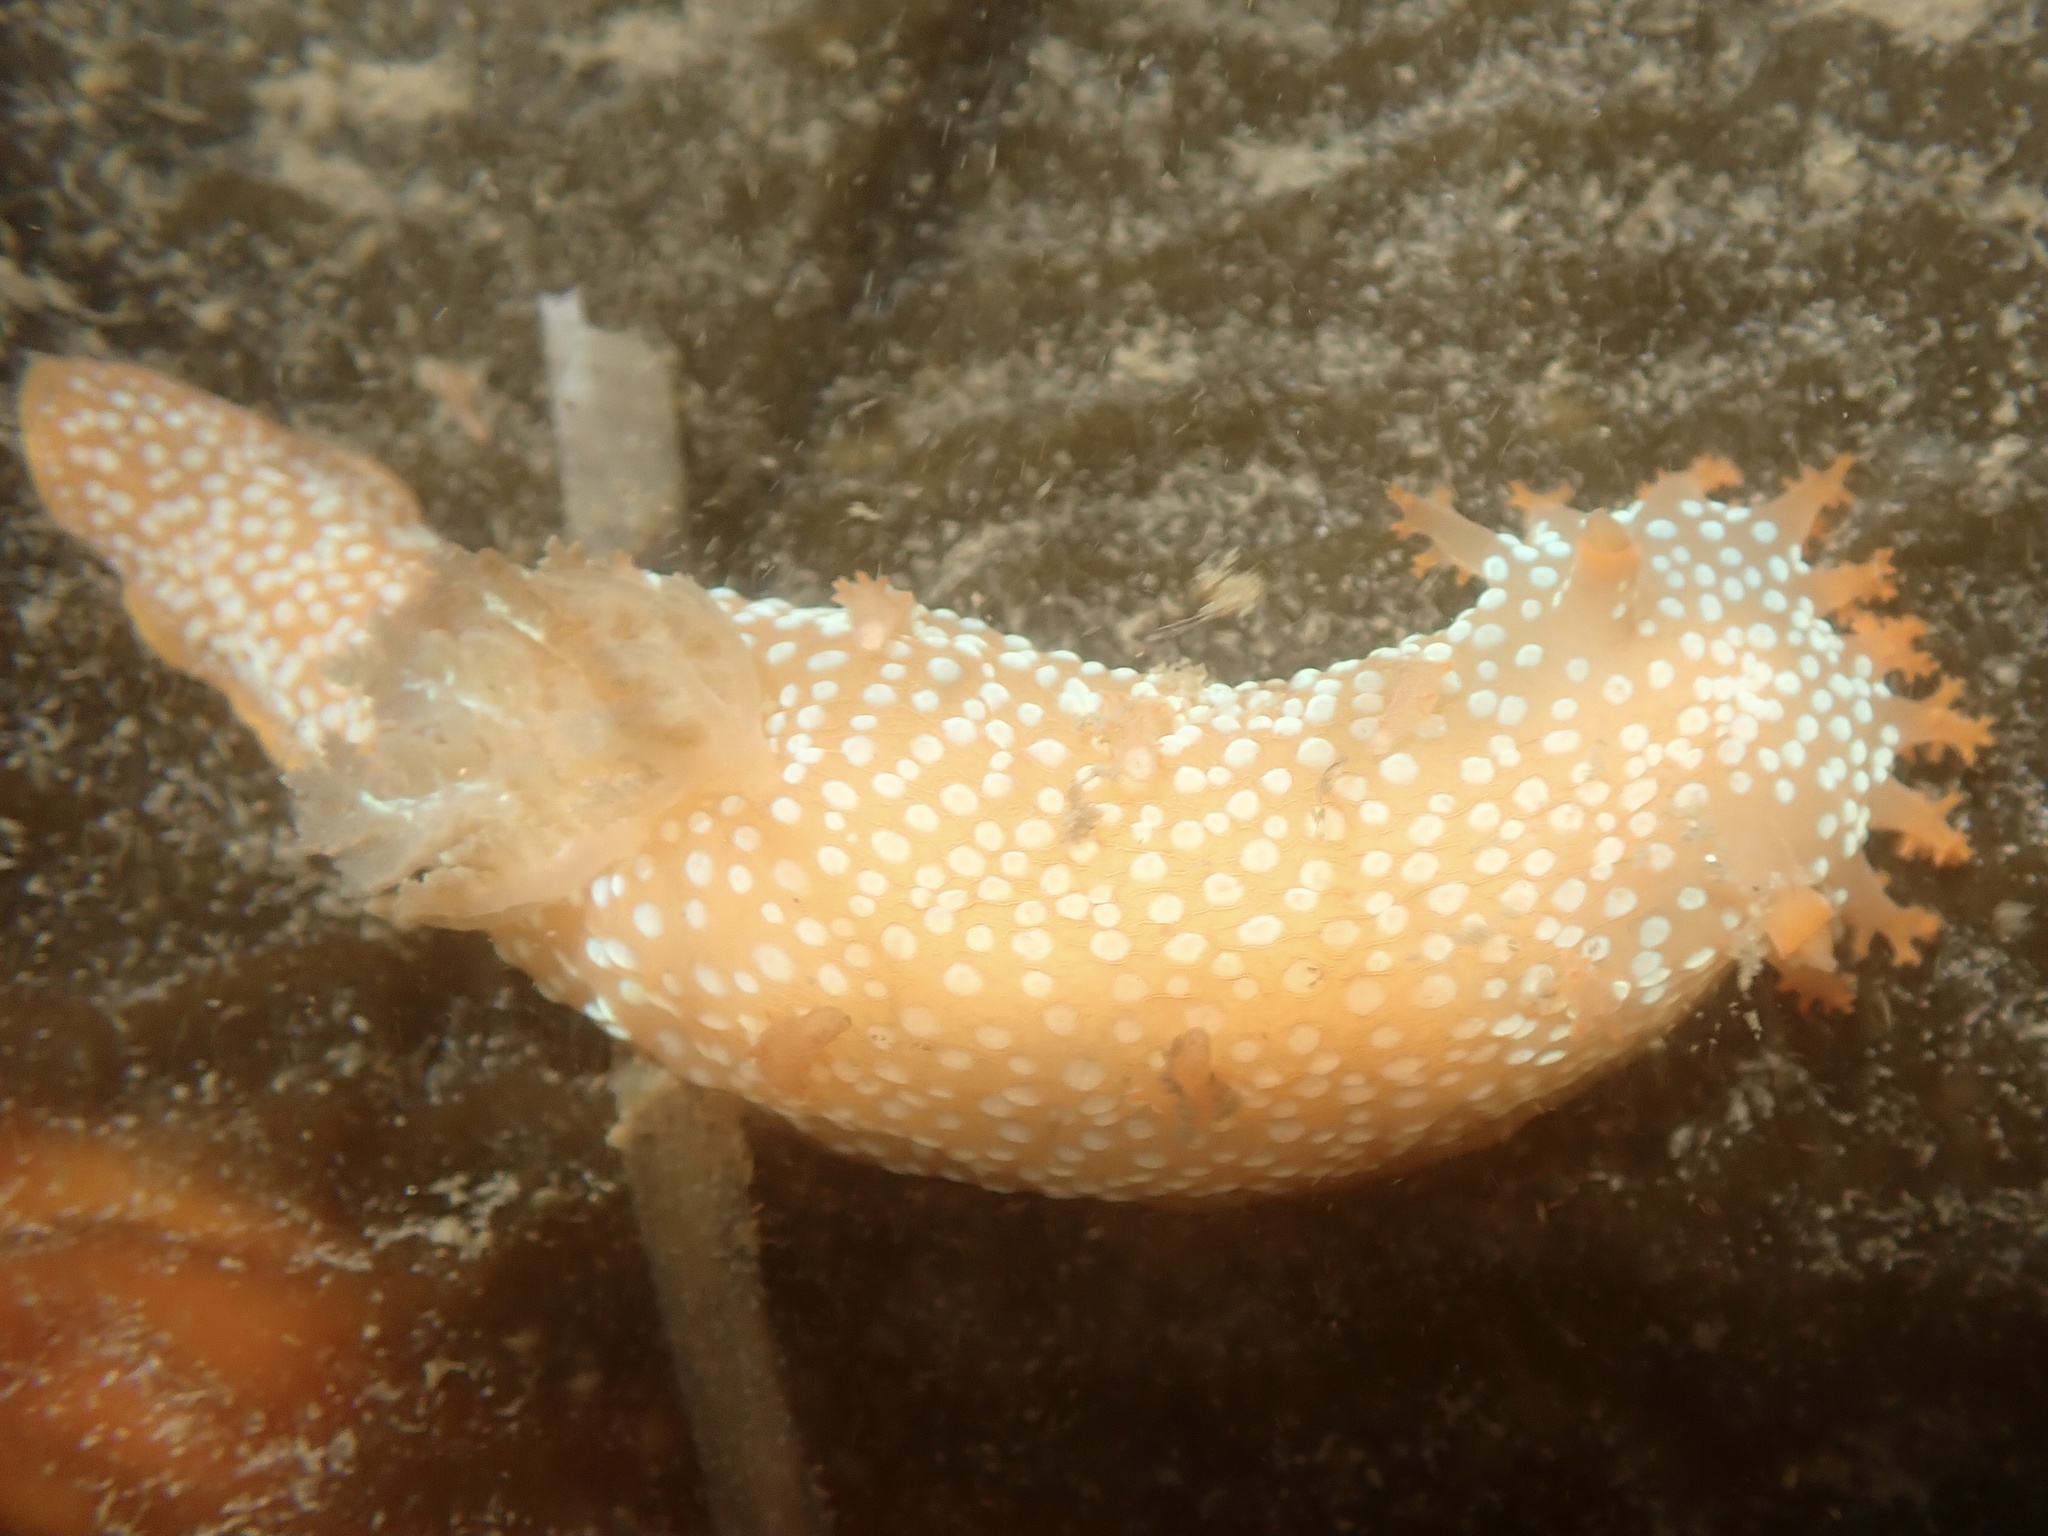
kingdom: Animalia
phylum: Mollusca
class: Gastropoda
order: Nudibranchia
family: Polyceridae
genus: Triopha
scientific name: Triopha maculata
